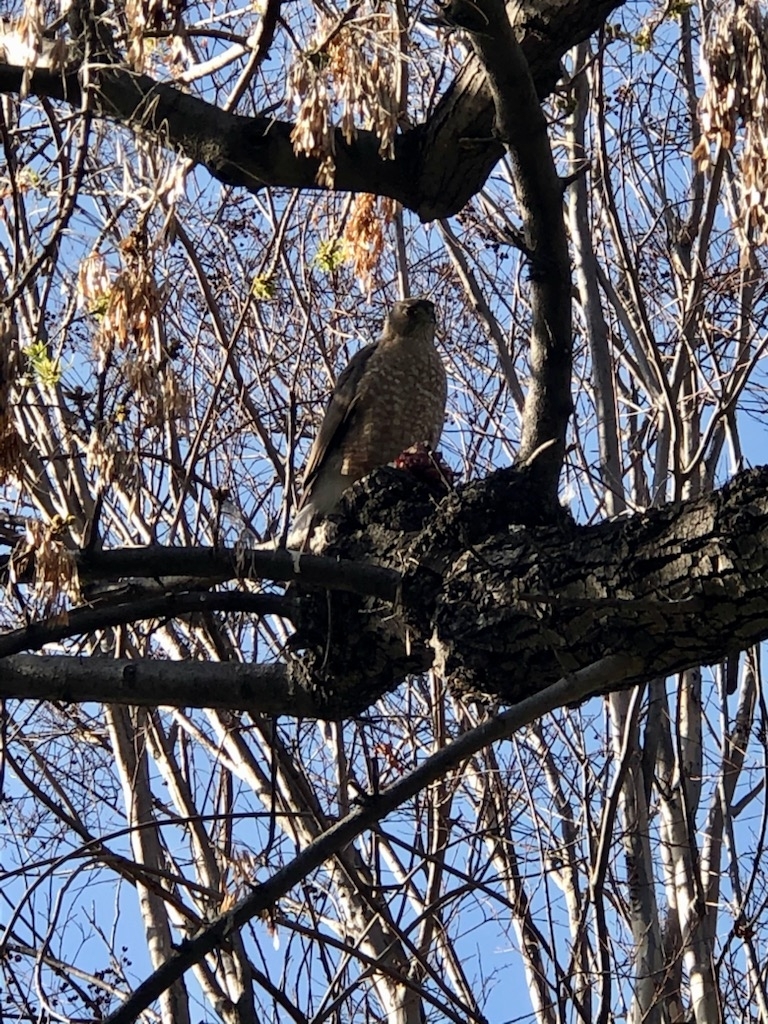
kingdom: Animalia
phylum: Chordata
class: Aves
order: Accipitriformes
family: Accipitridae
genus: Accipiter
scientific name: Accipiter cooperii
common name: Cooper's hawk
